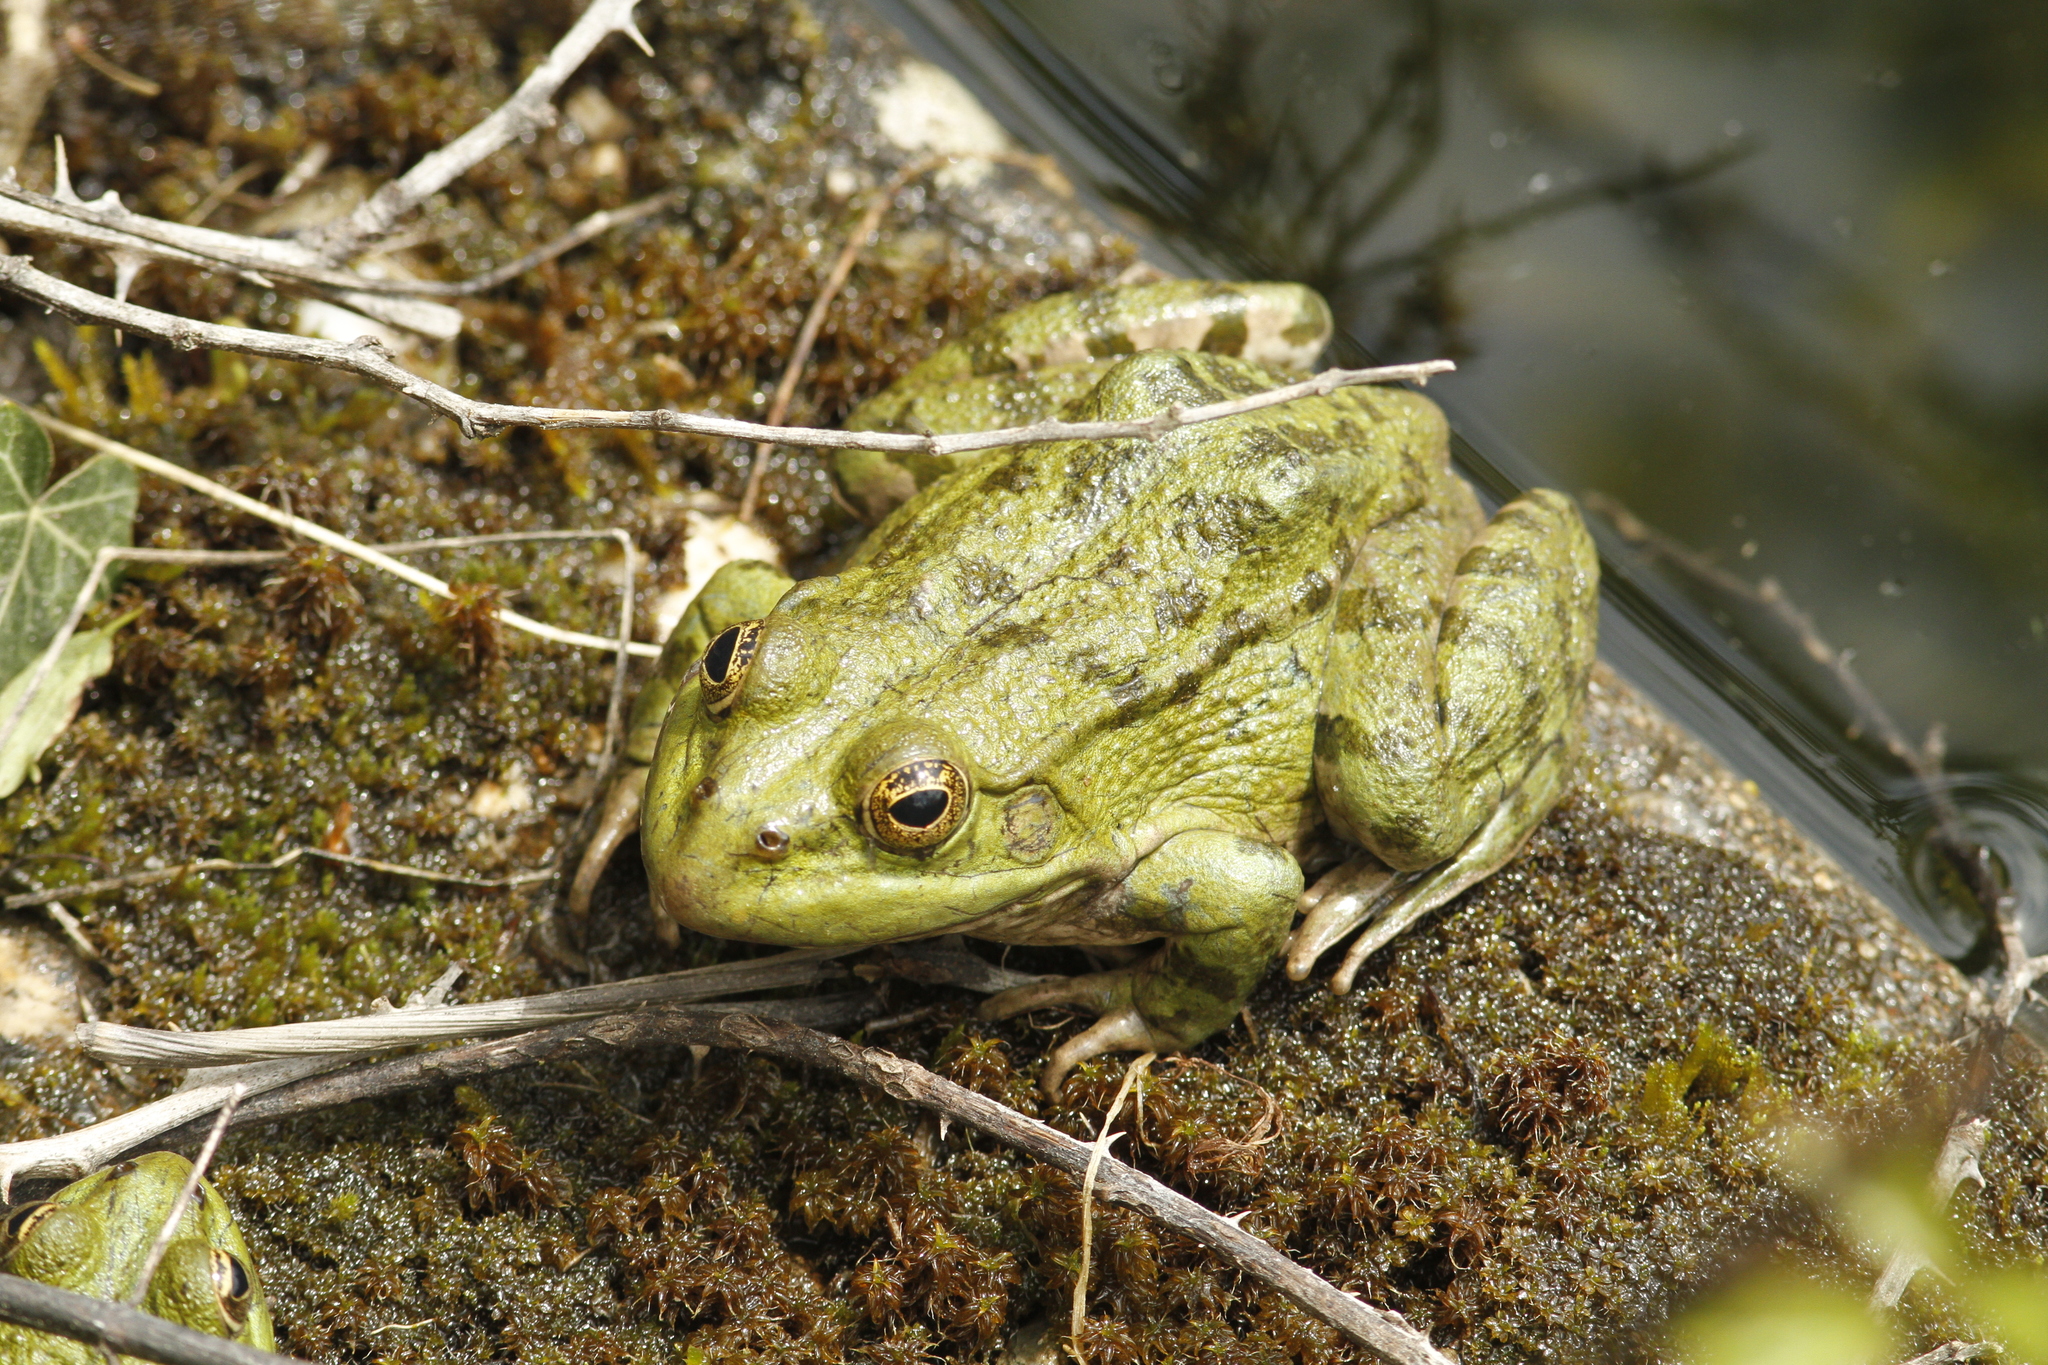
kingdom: Animalia
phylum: Chordata
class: Amphibia
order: Anura
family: Ranidae
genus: Pelophylax
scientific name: Pelophylax ridibundus
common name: Marsh frog
